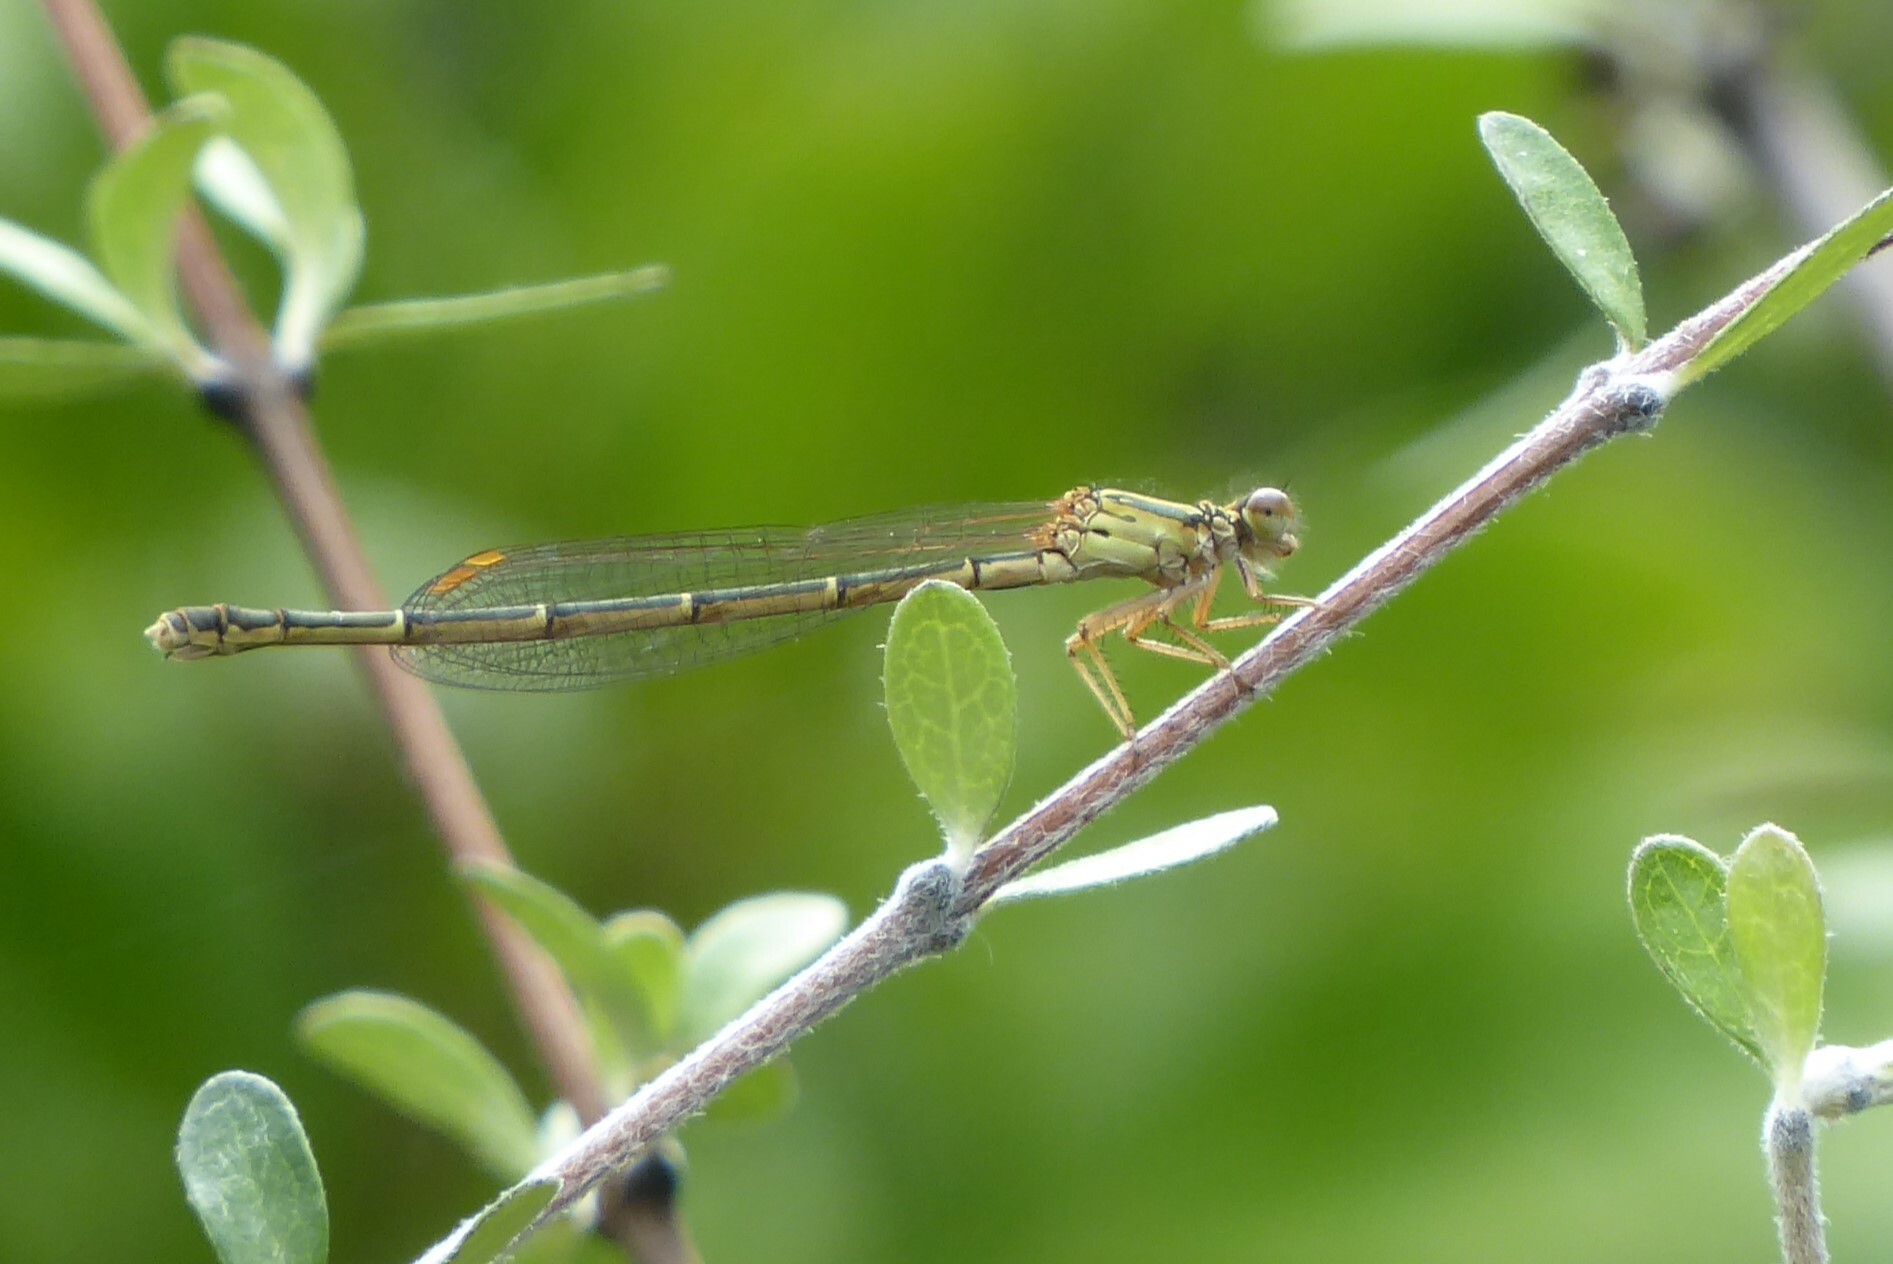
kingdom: Animalia
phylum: Arthropoda
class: Insecta
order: Odonata
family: Coenagrionidae
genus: Xanthocnemis
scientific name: Xanthocnemis zealandica
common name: Common redcoat damselfly
